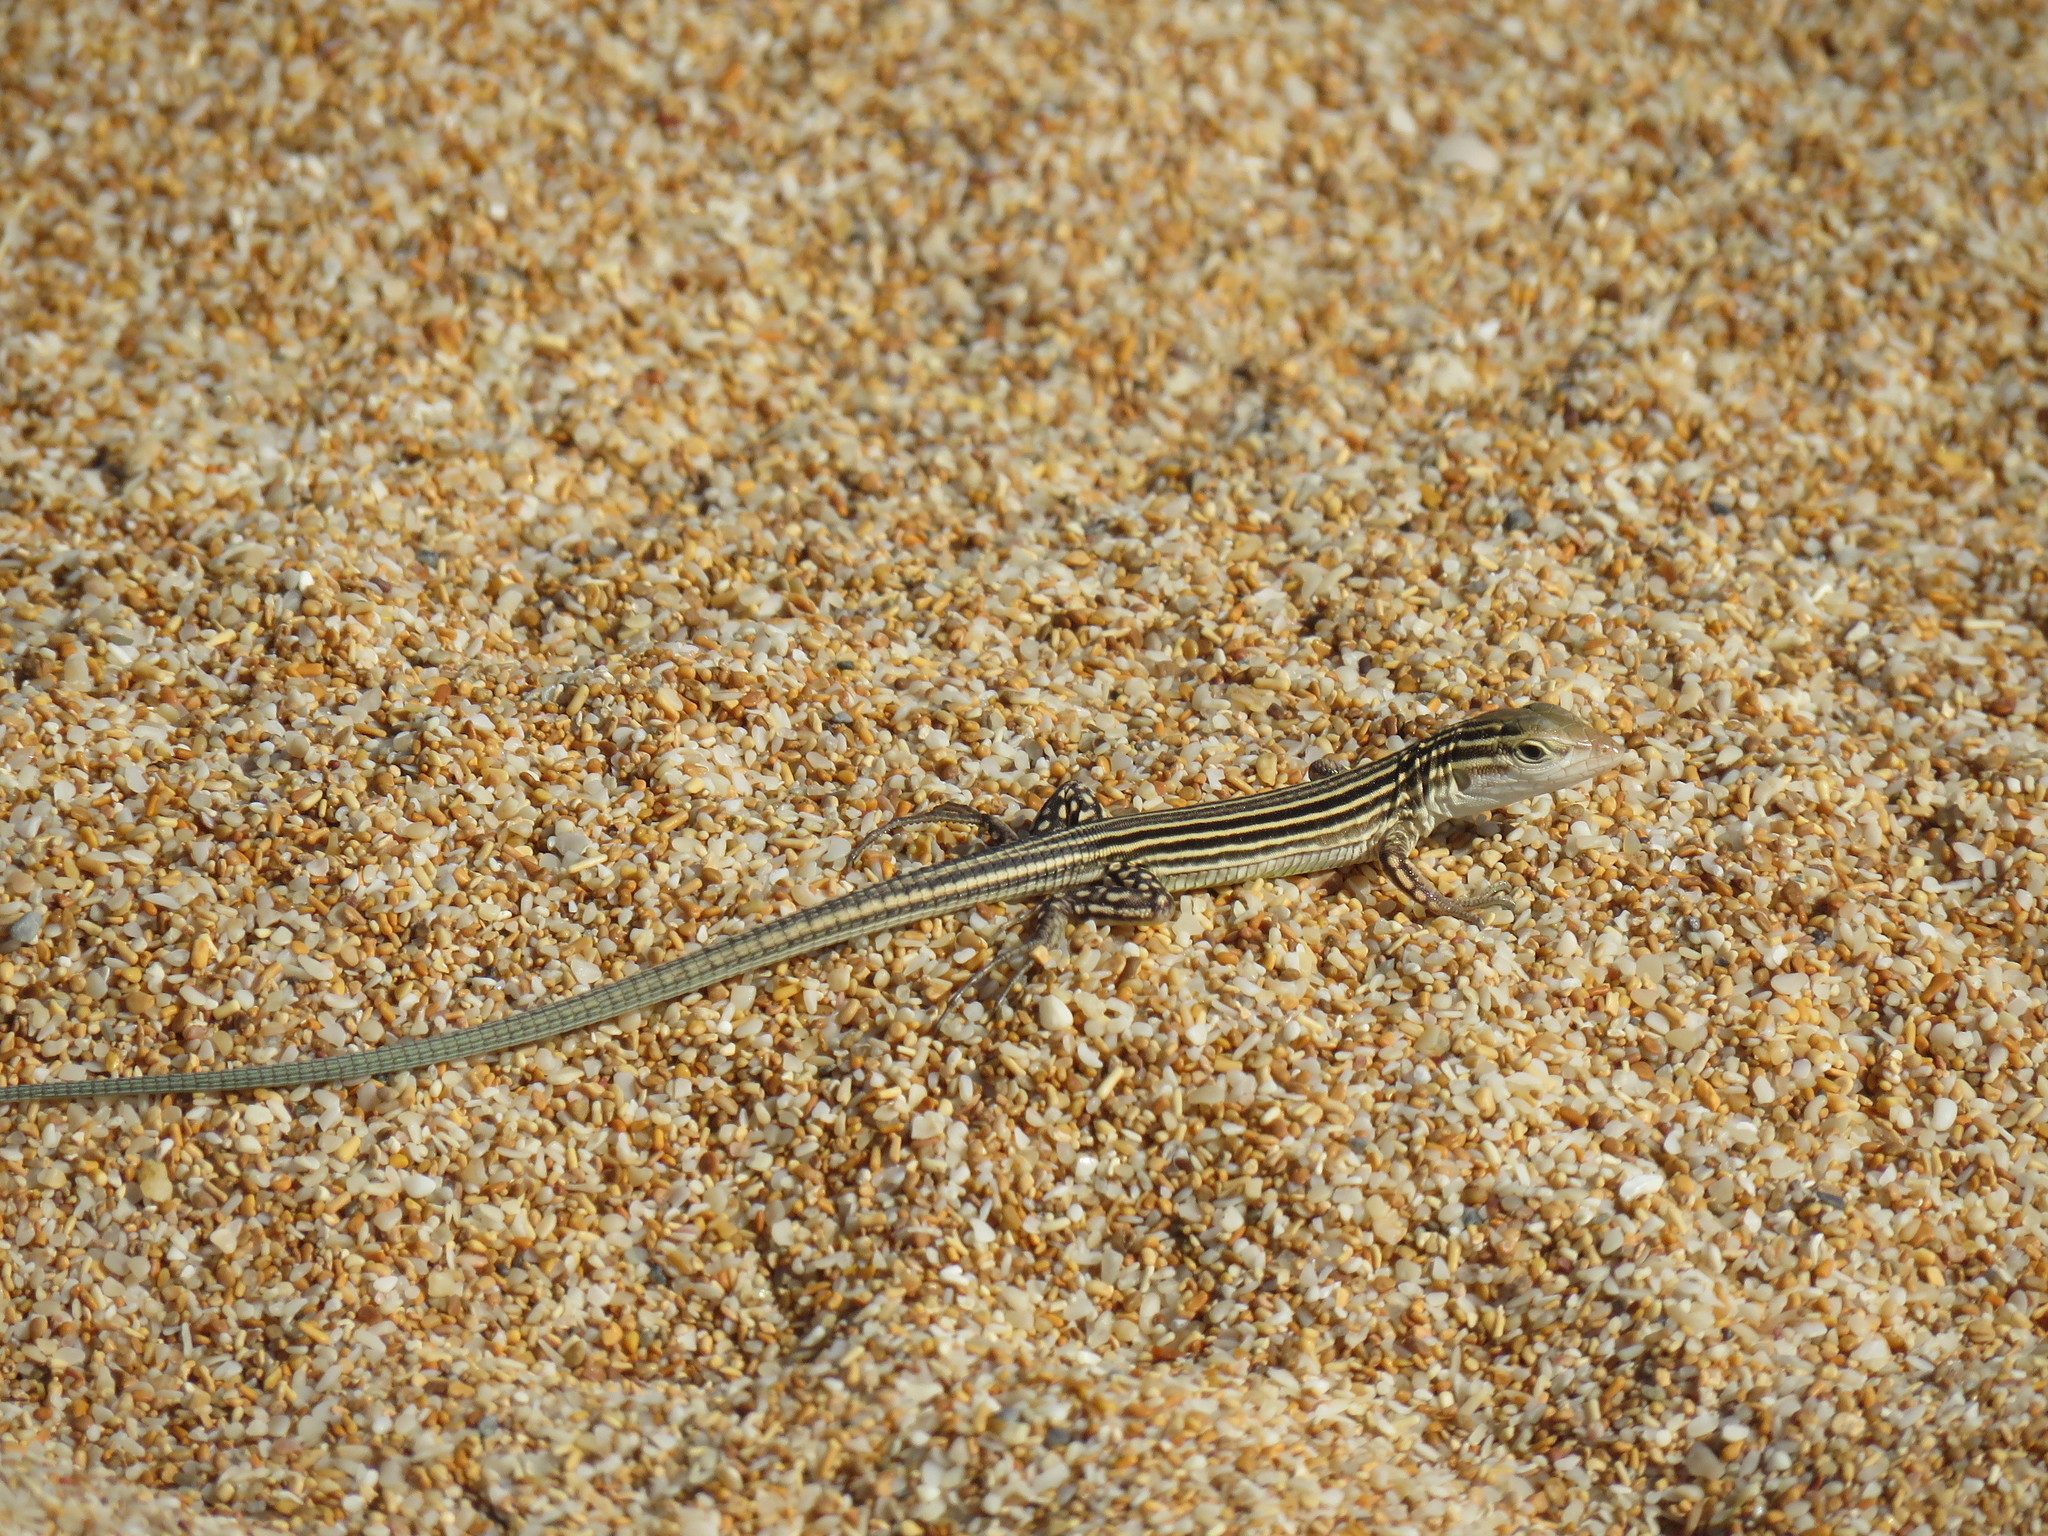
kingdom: Animalia
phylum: Chordata
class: Squamata
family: Teiidae
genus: Cnemidophorus
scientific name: Cnemidophorus arenivagus
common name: Rainbow lizard
